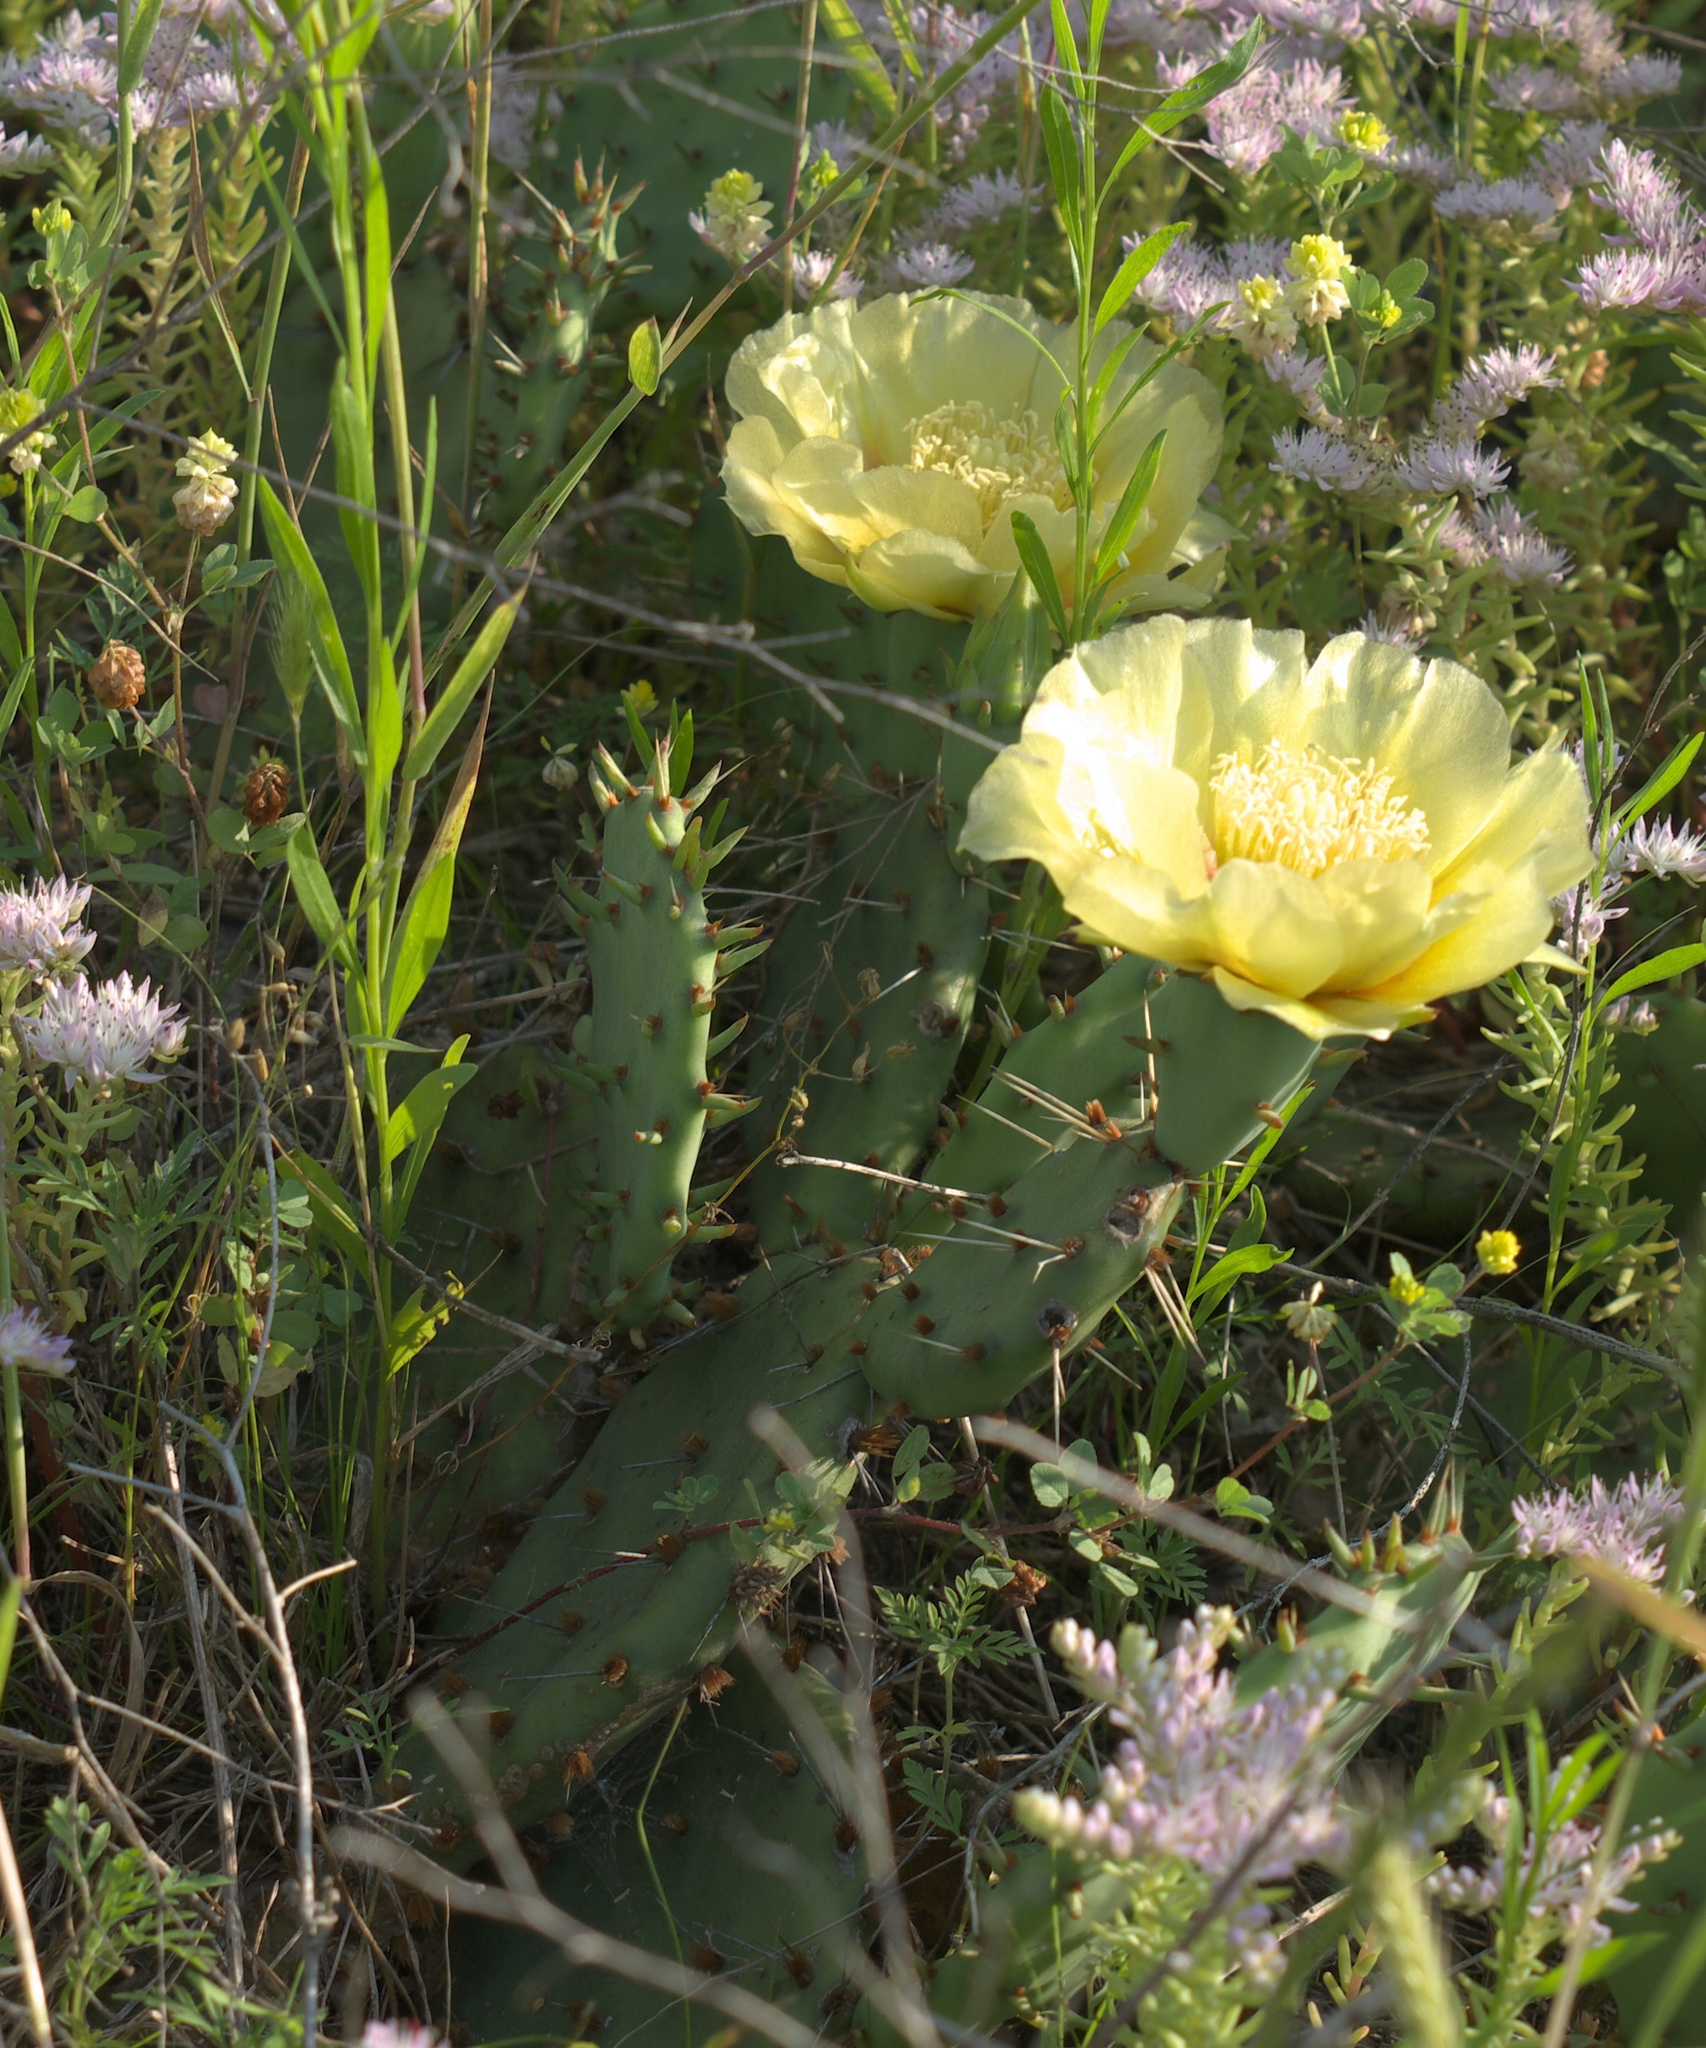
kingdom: Plantae
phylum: Tracheophyta
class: Magnoliopsida
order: Caryophyllales
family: Cactaceae
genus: Opuntia
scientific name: Opuntia macrorhiza
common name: Grassland pricklypear
